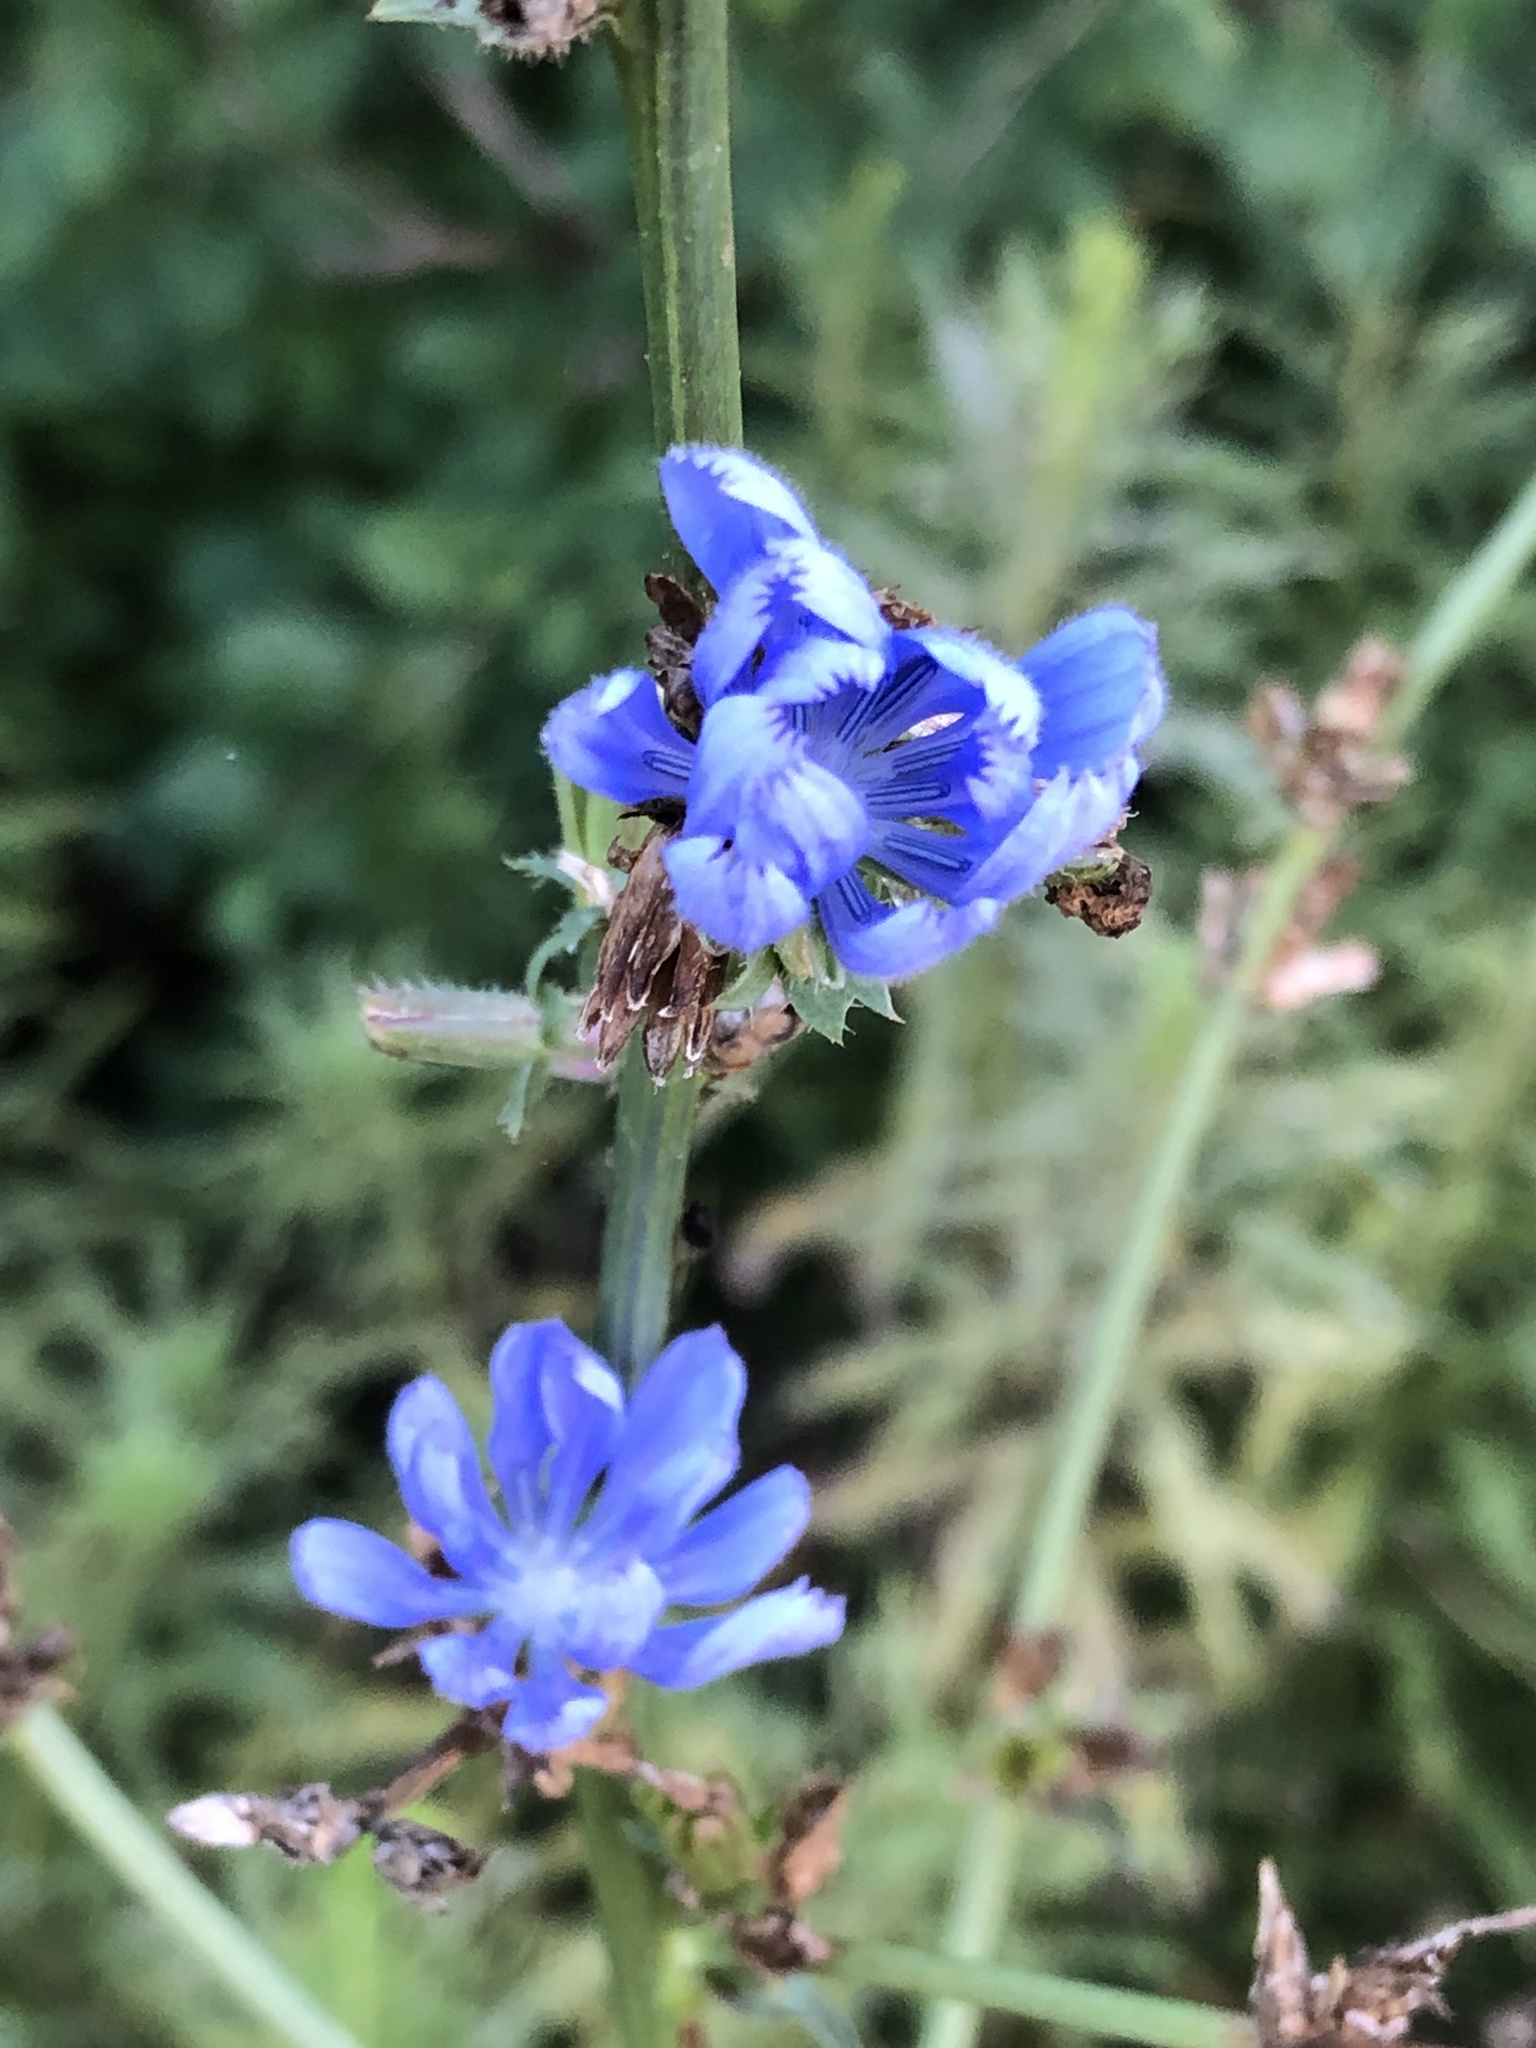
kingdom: Plantae
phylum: Tracheophyta
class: Magnoliopsida
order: Asterales
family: Asteraceae
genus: Cichorium
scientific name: Cichorium intybus
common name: Chicory
